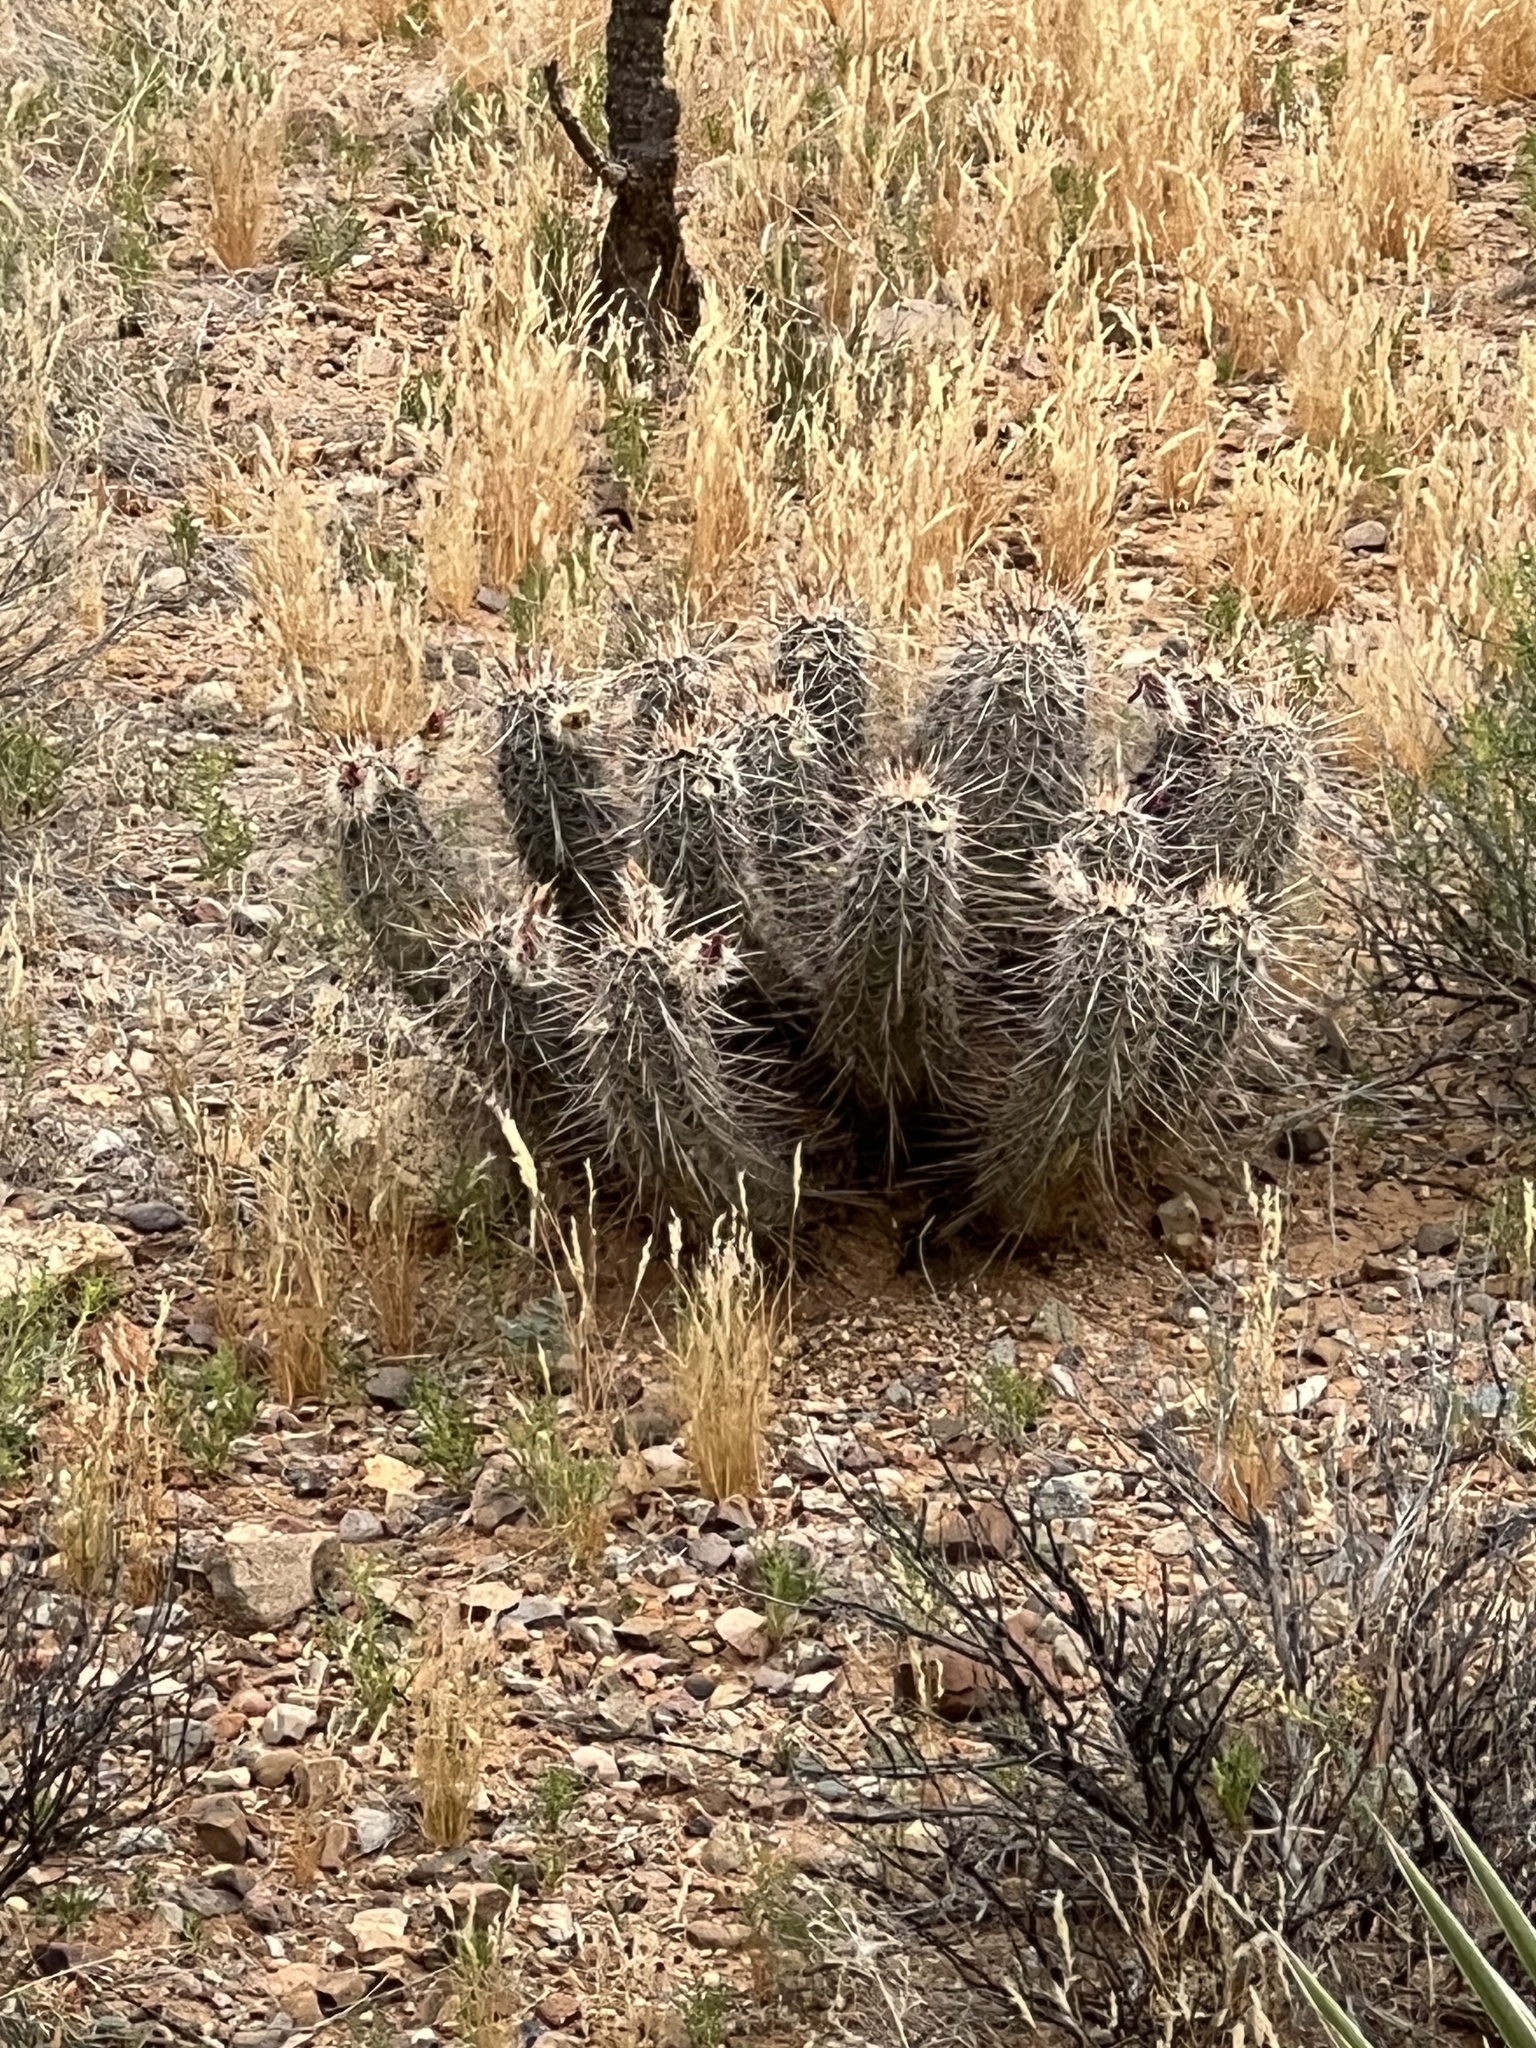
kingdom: Plantae
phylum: Tracheophyta
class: Magnoliopsida
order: Caryophyllales
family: Cactaceae
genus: Echinocereus
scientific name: Echinocereus fasciculatus
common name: Bundle hedgehog
